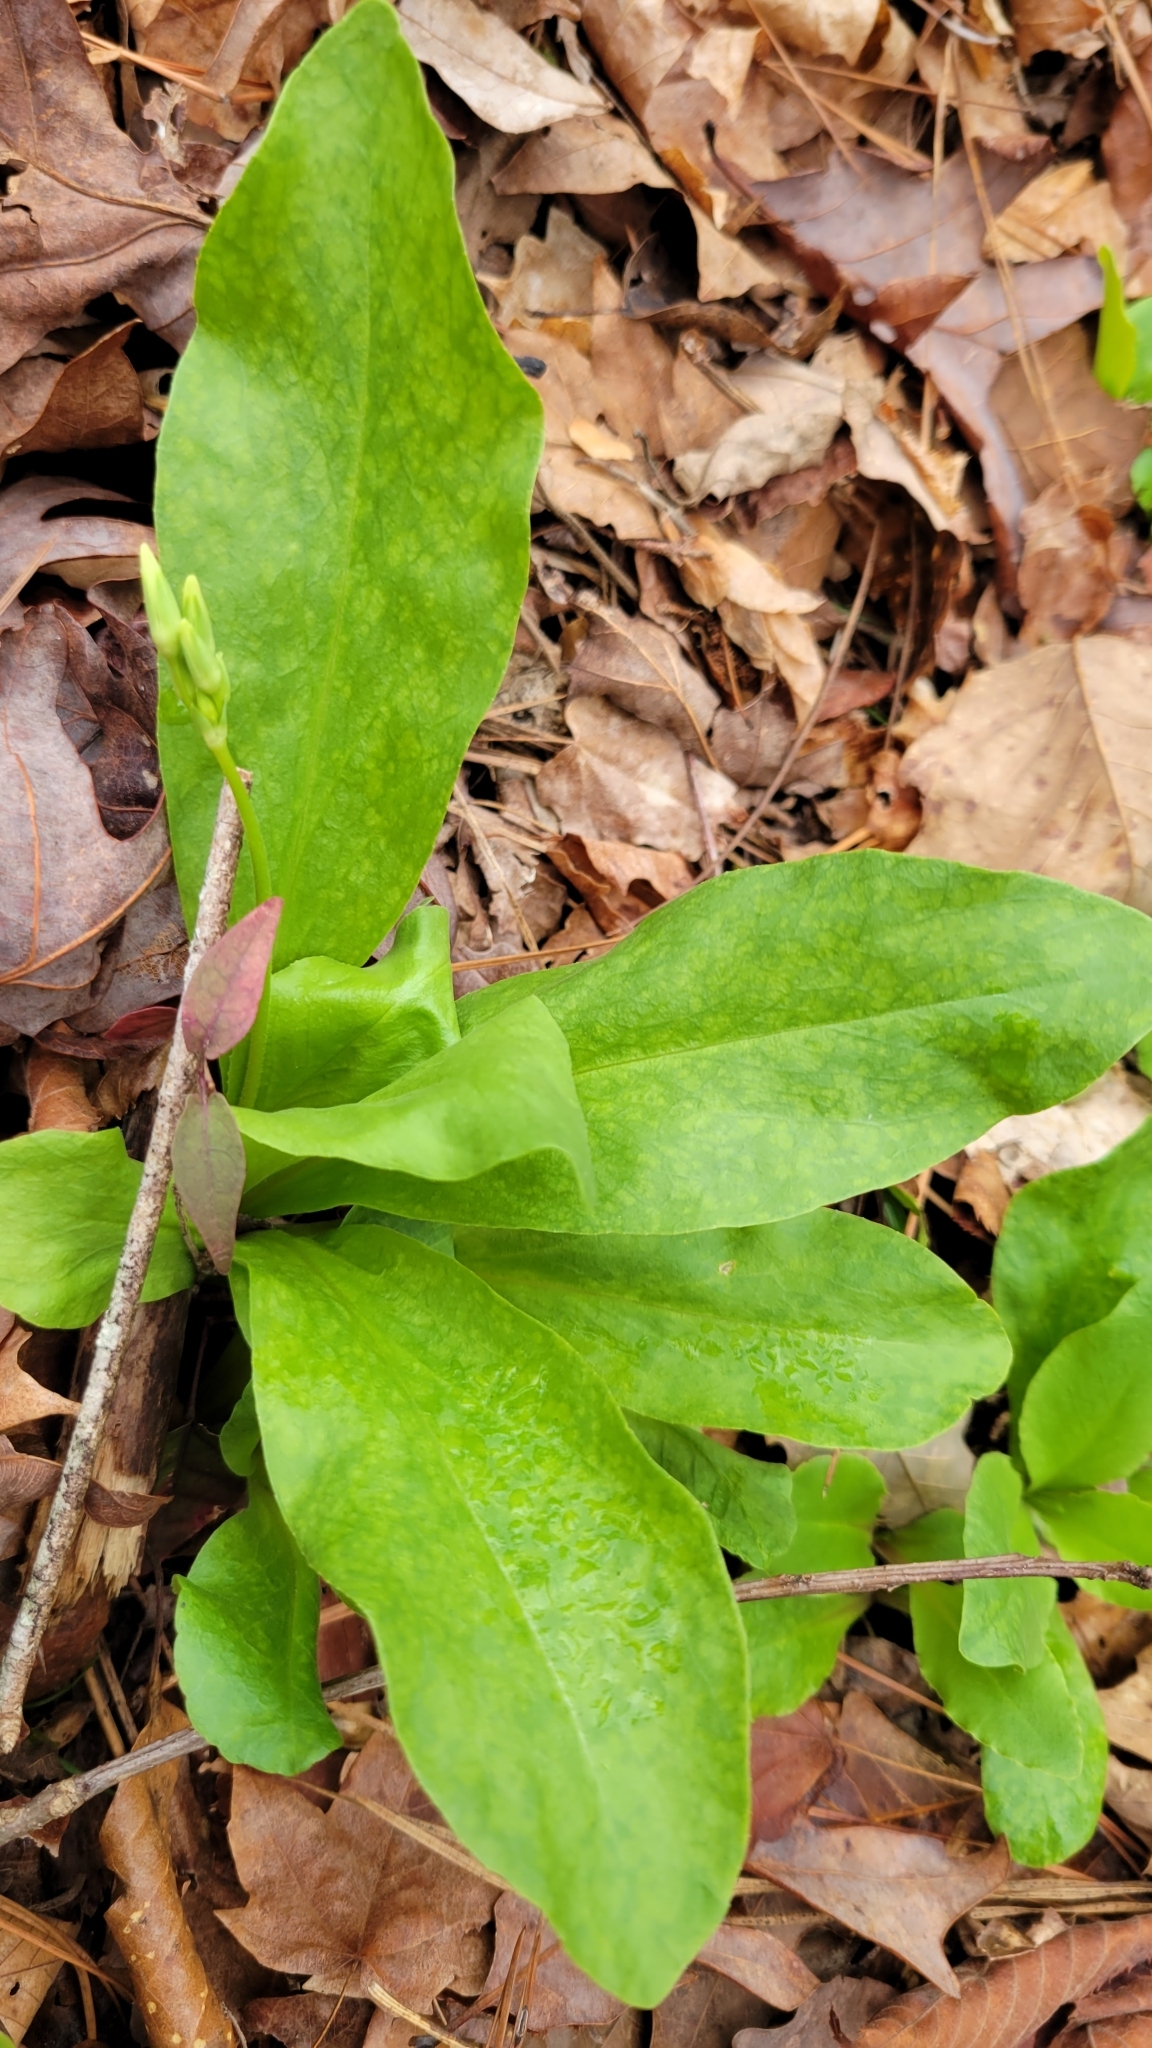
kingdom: Plantae
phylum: Tracheophyta
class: Magnoliopsida
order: Ericales
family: Primulaceae
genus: Dodecatheon
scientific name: Dodecatheon meadia
